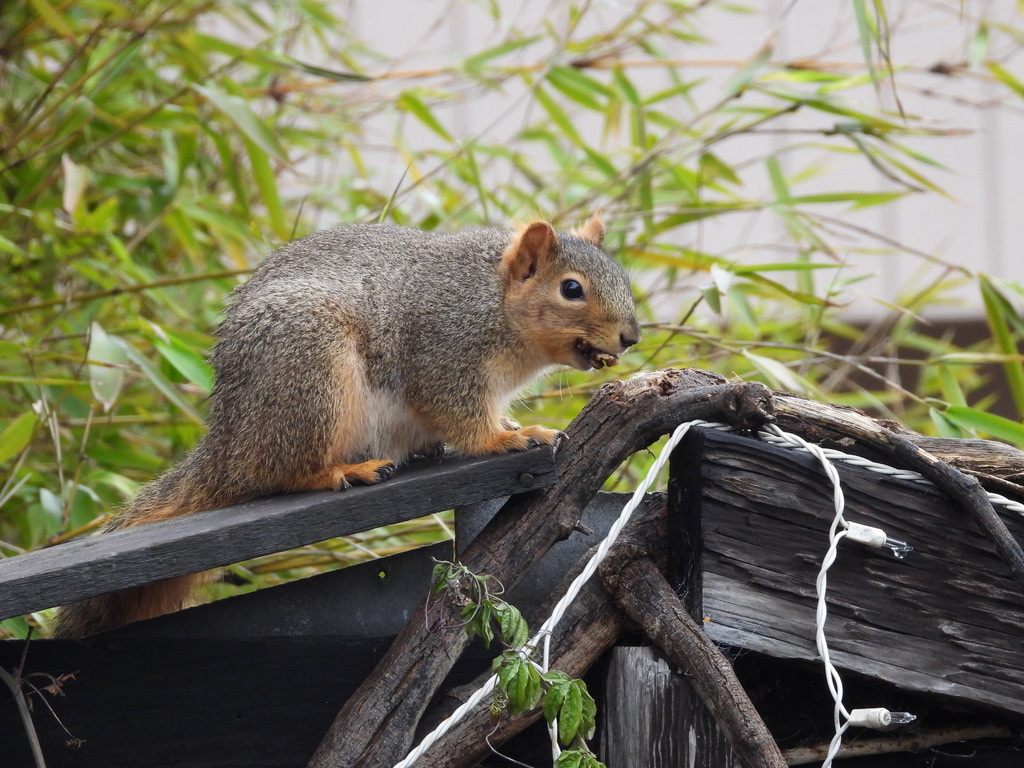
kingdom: Animalia
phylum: Chordata
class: Mammalia
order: Rodentia
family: Sciuridae
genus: Sciurus
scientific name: Sciurus niger
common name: Fox squirrel
